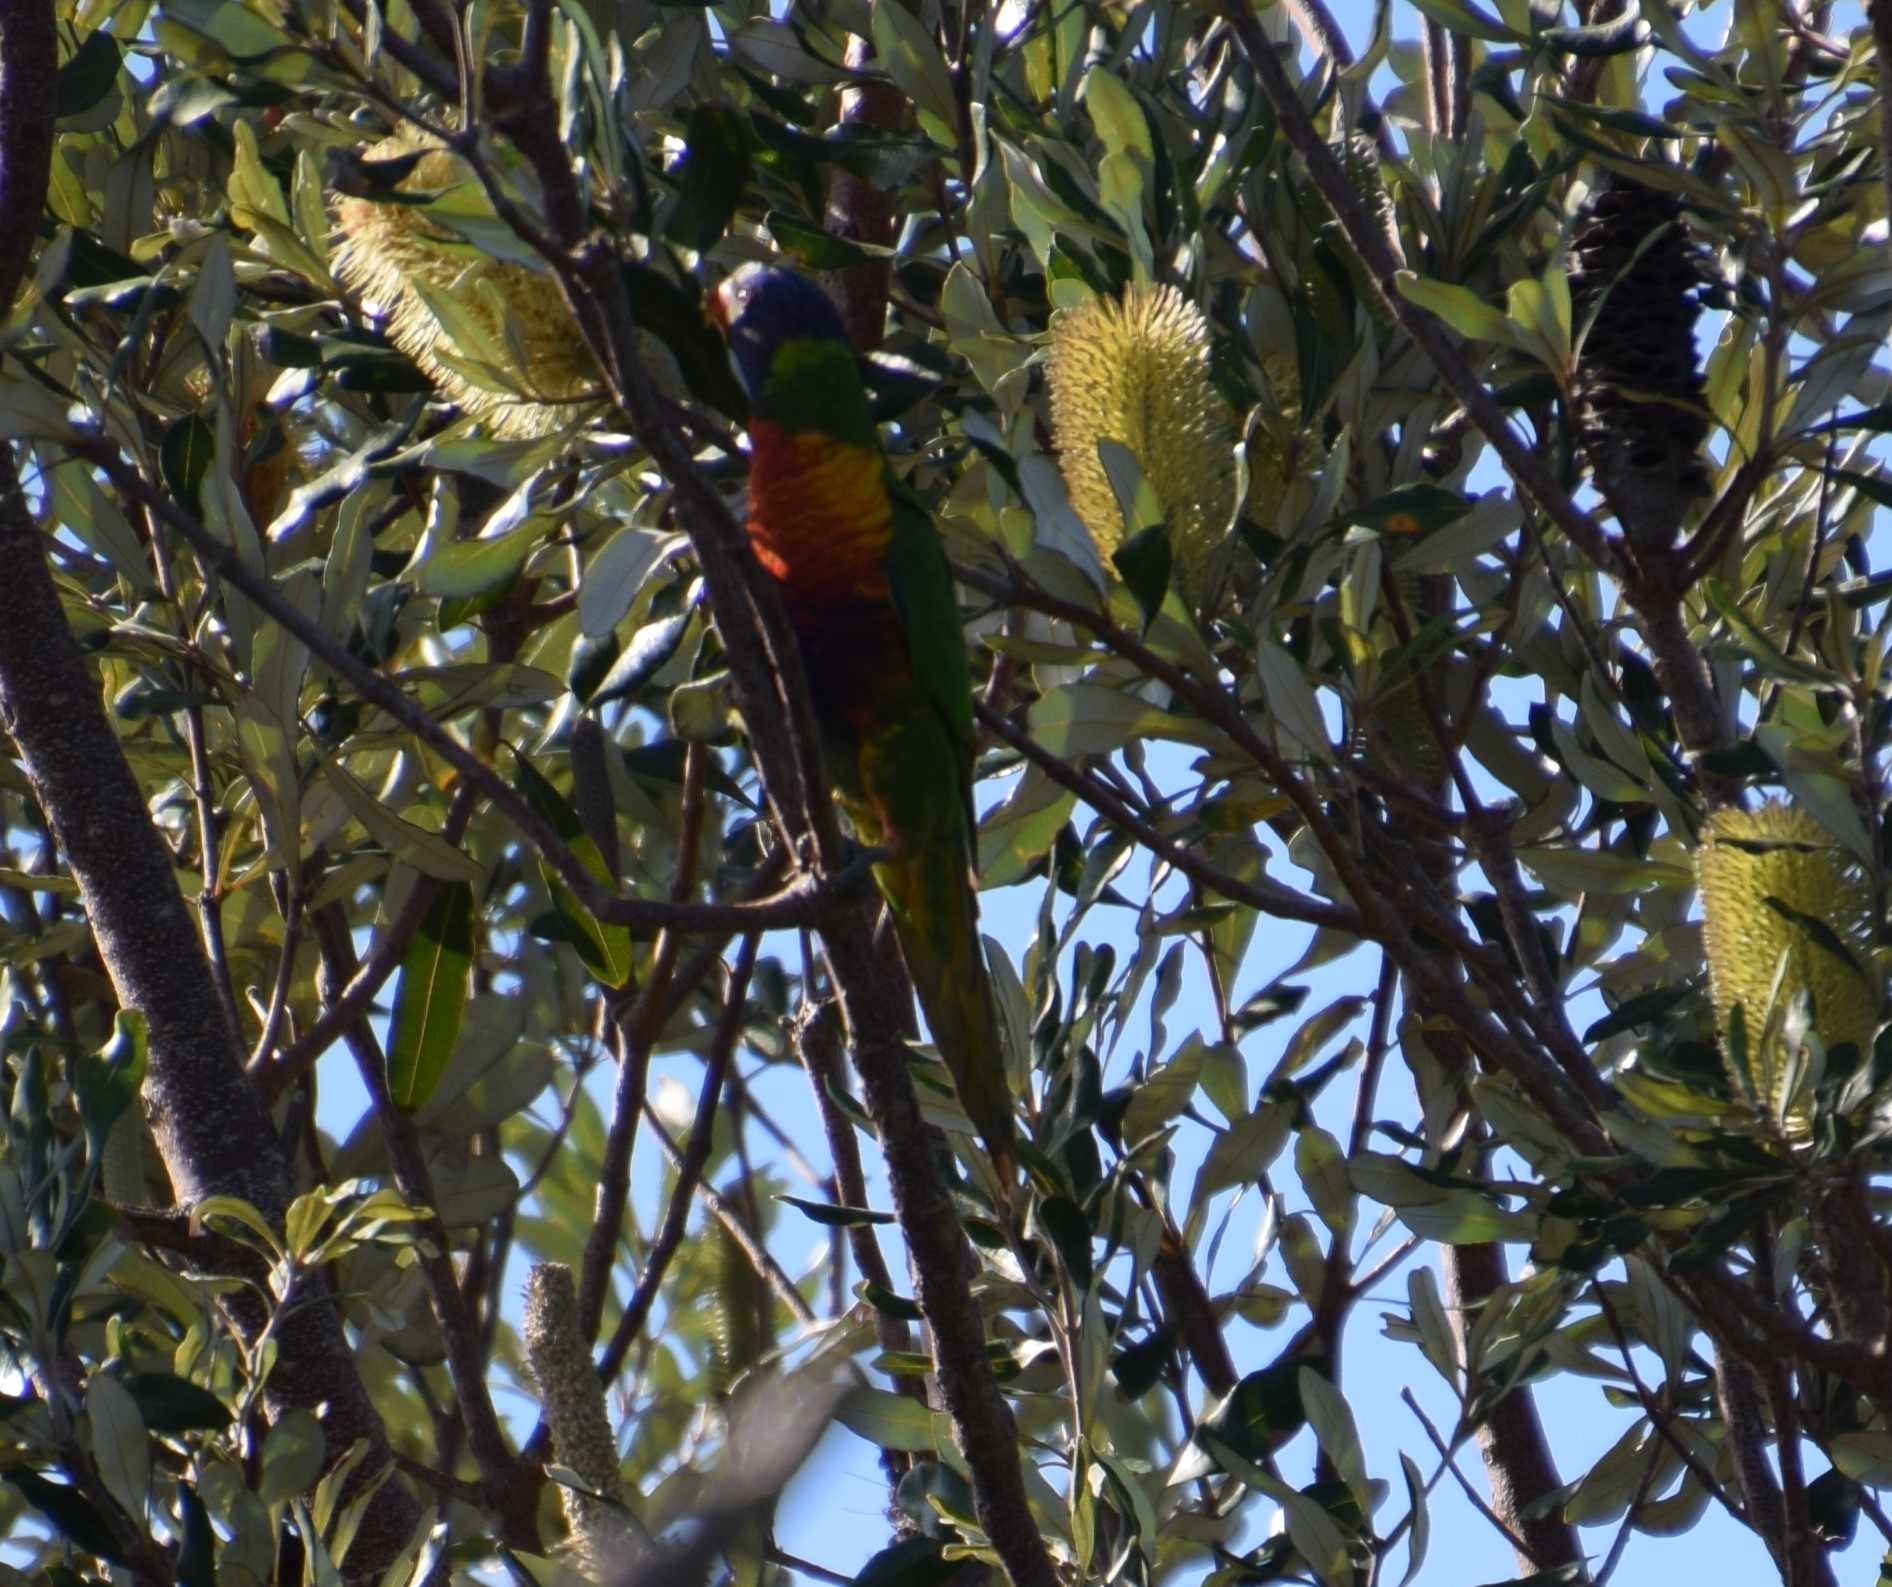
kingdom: Animalia
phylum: Chordata
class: Aves
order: Psittaciformes
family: Psittacidae
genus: Trichoglossus
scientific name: Trichoglossus haematodus
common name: Coconut lorikeet
